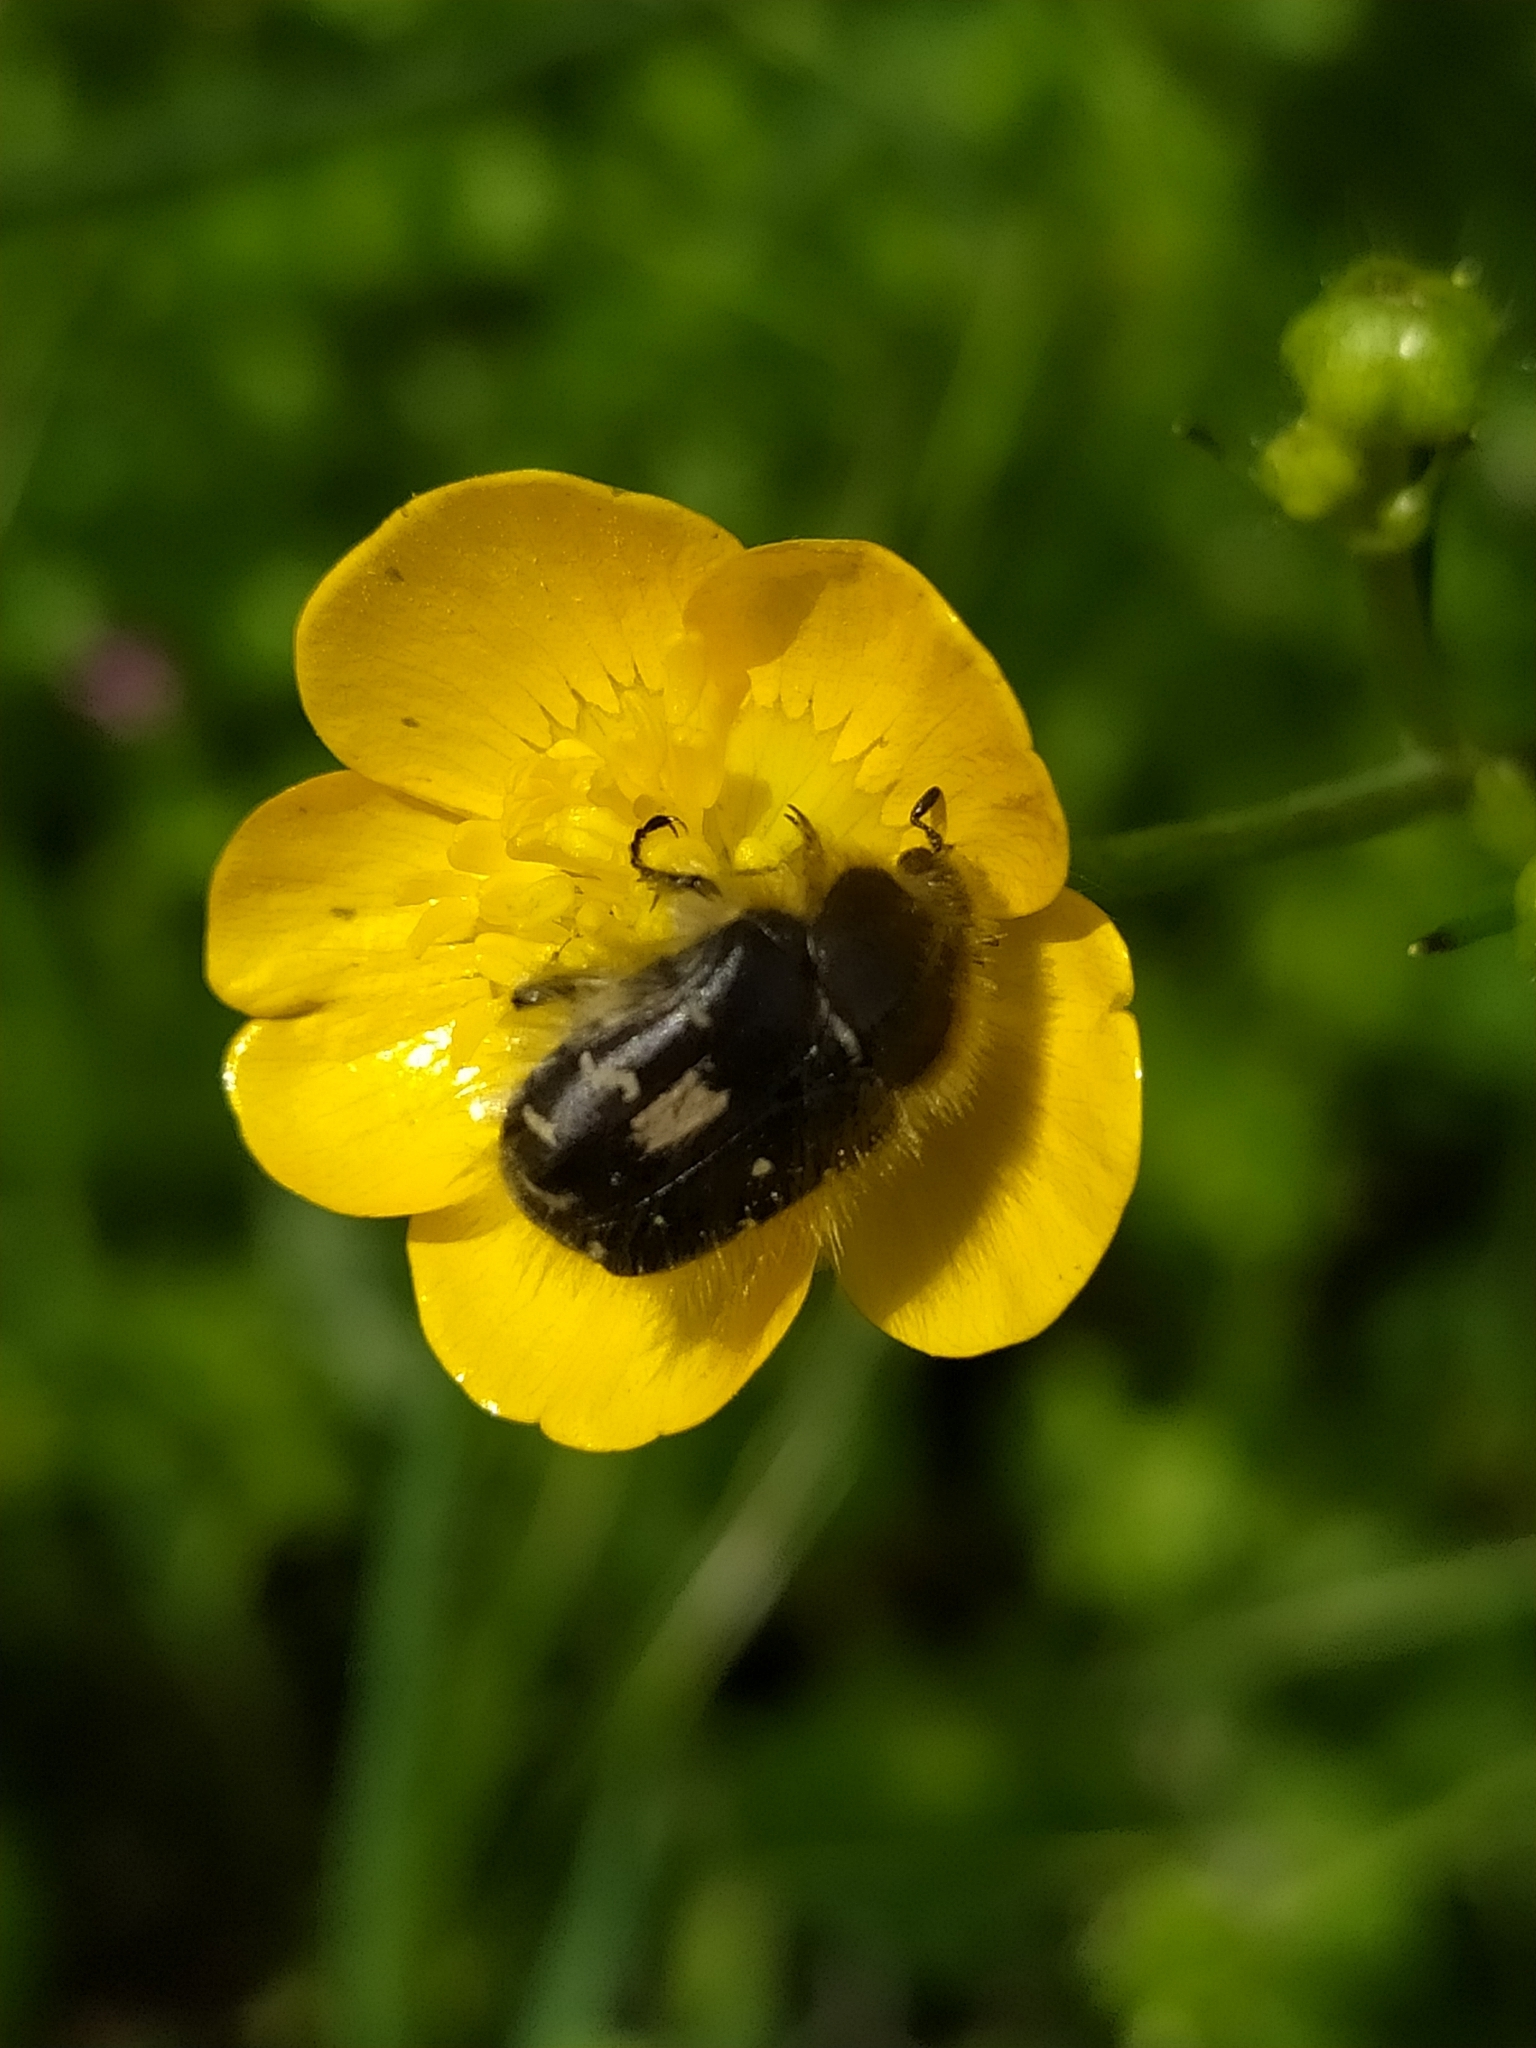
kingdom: Animalia
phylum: Arthropoda
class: Insecta
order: Coleoptera
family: Scarabaeidae
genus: Tropinota
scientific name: Tropinota squalida
